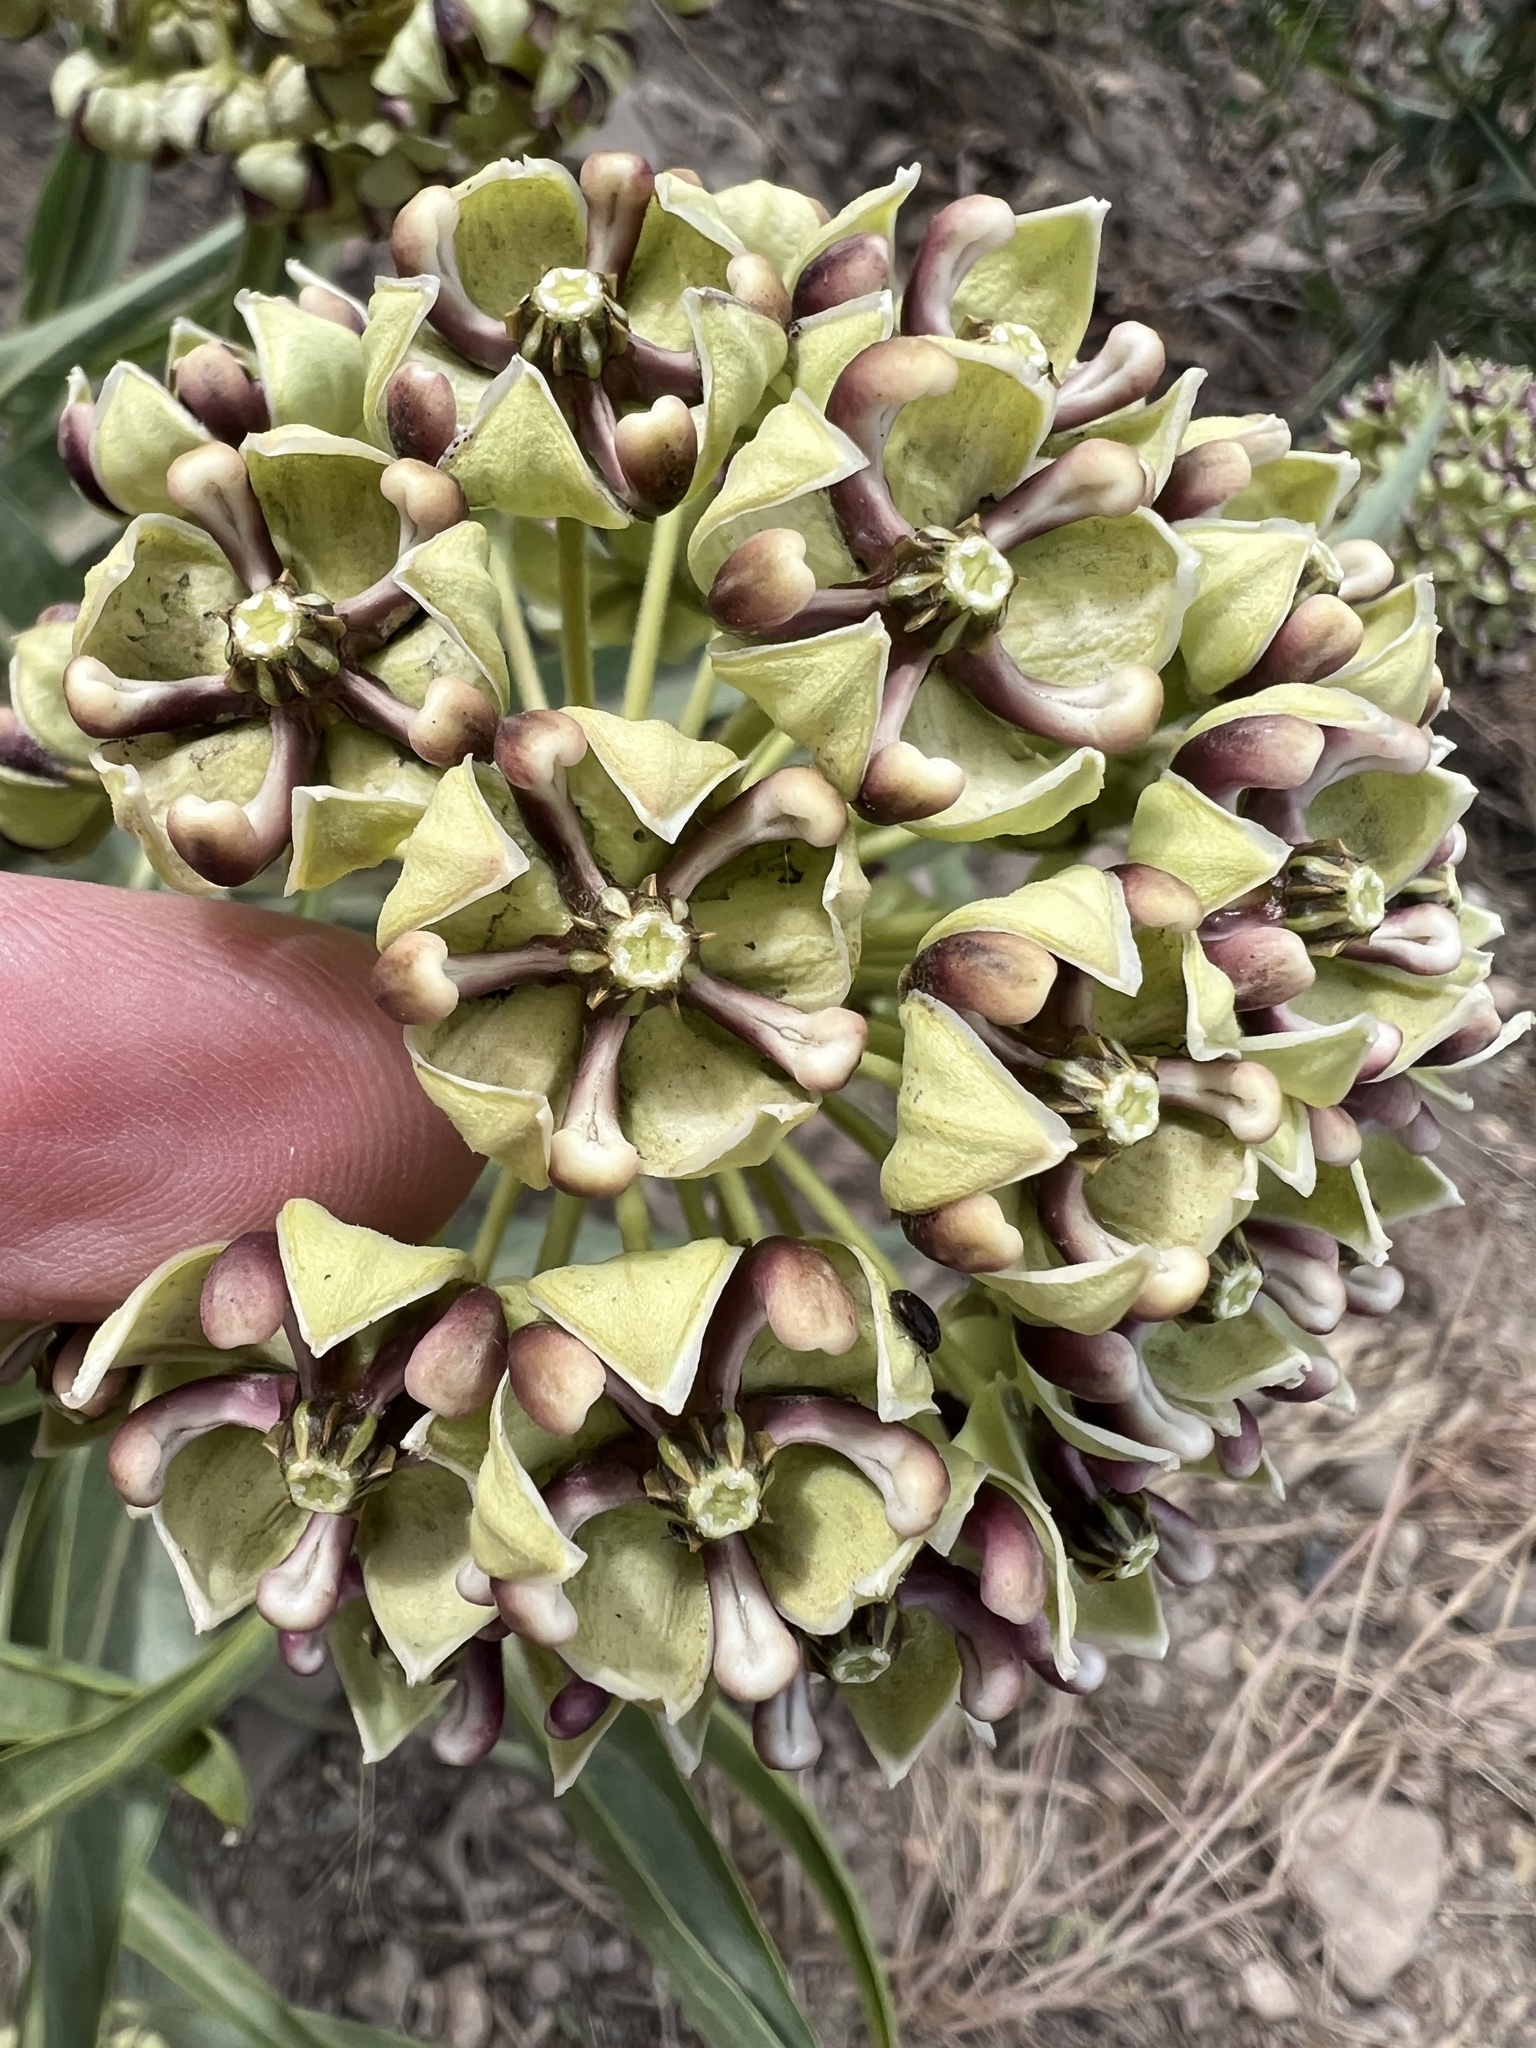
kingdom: Plantae
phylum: Tracheophyta
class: Magnoliopsida
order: Gentianales
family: Apocynaceae
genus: Asclepias
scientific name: Asclepias asperula
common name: Antelope horns
